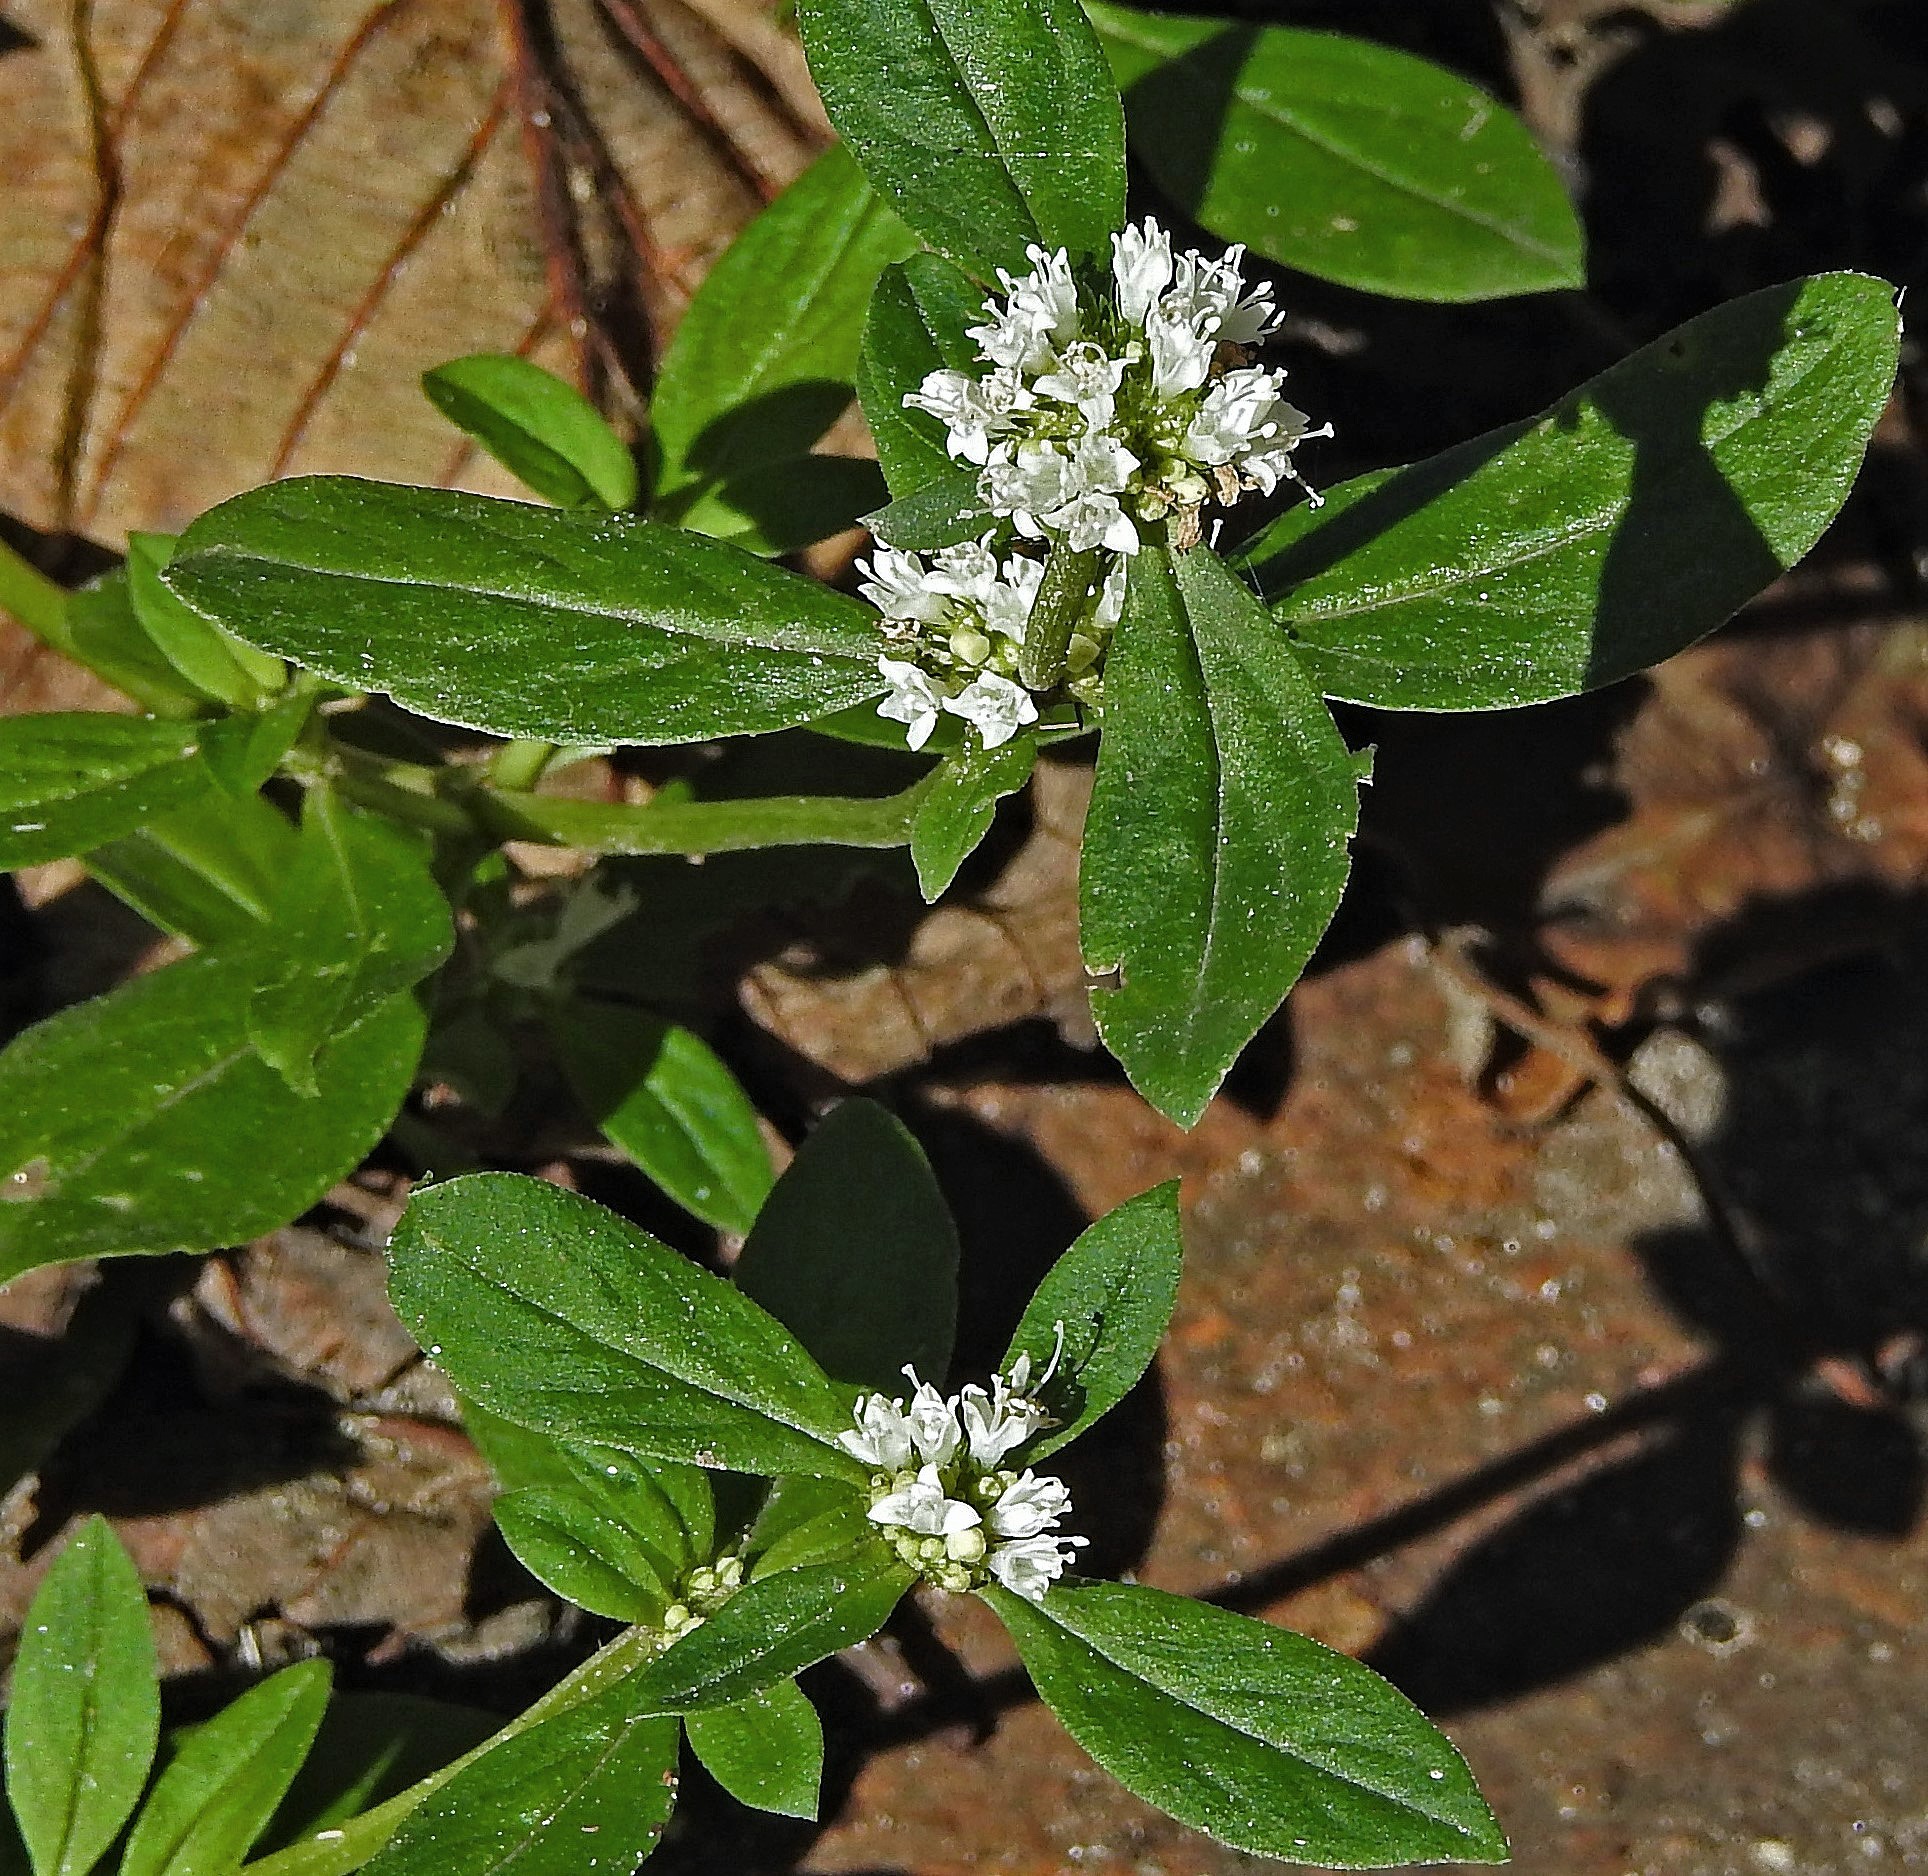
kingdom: Plantae
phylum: Tracheophyta
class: Magnoliopsida
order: Gentianales
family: Rubiaceae
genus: Spermacoce
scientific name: Spermacoce dasycephala
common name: False buttonweed
